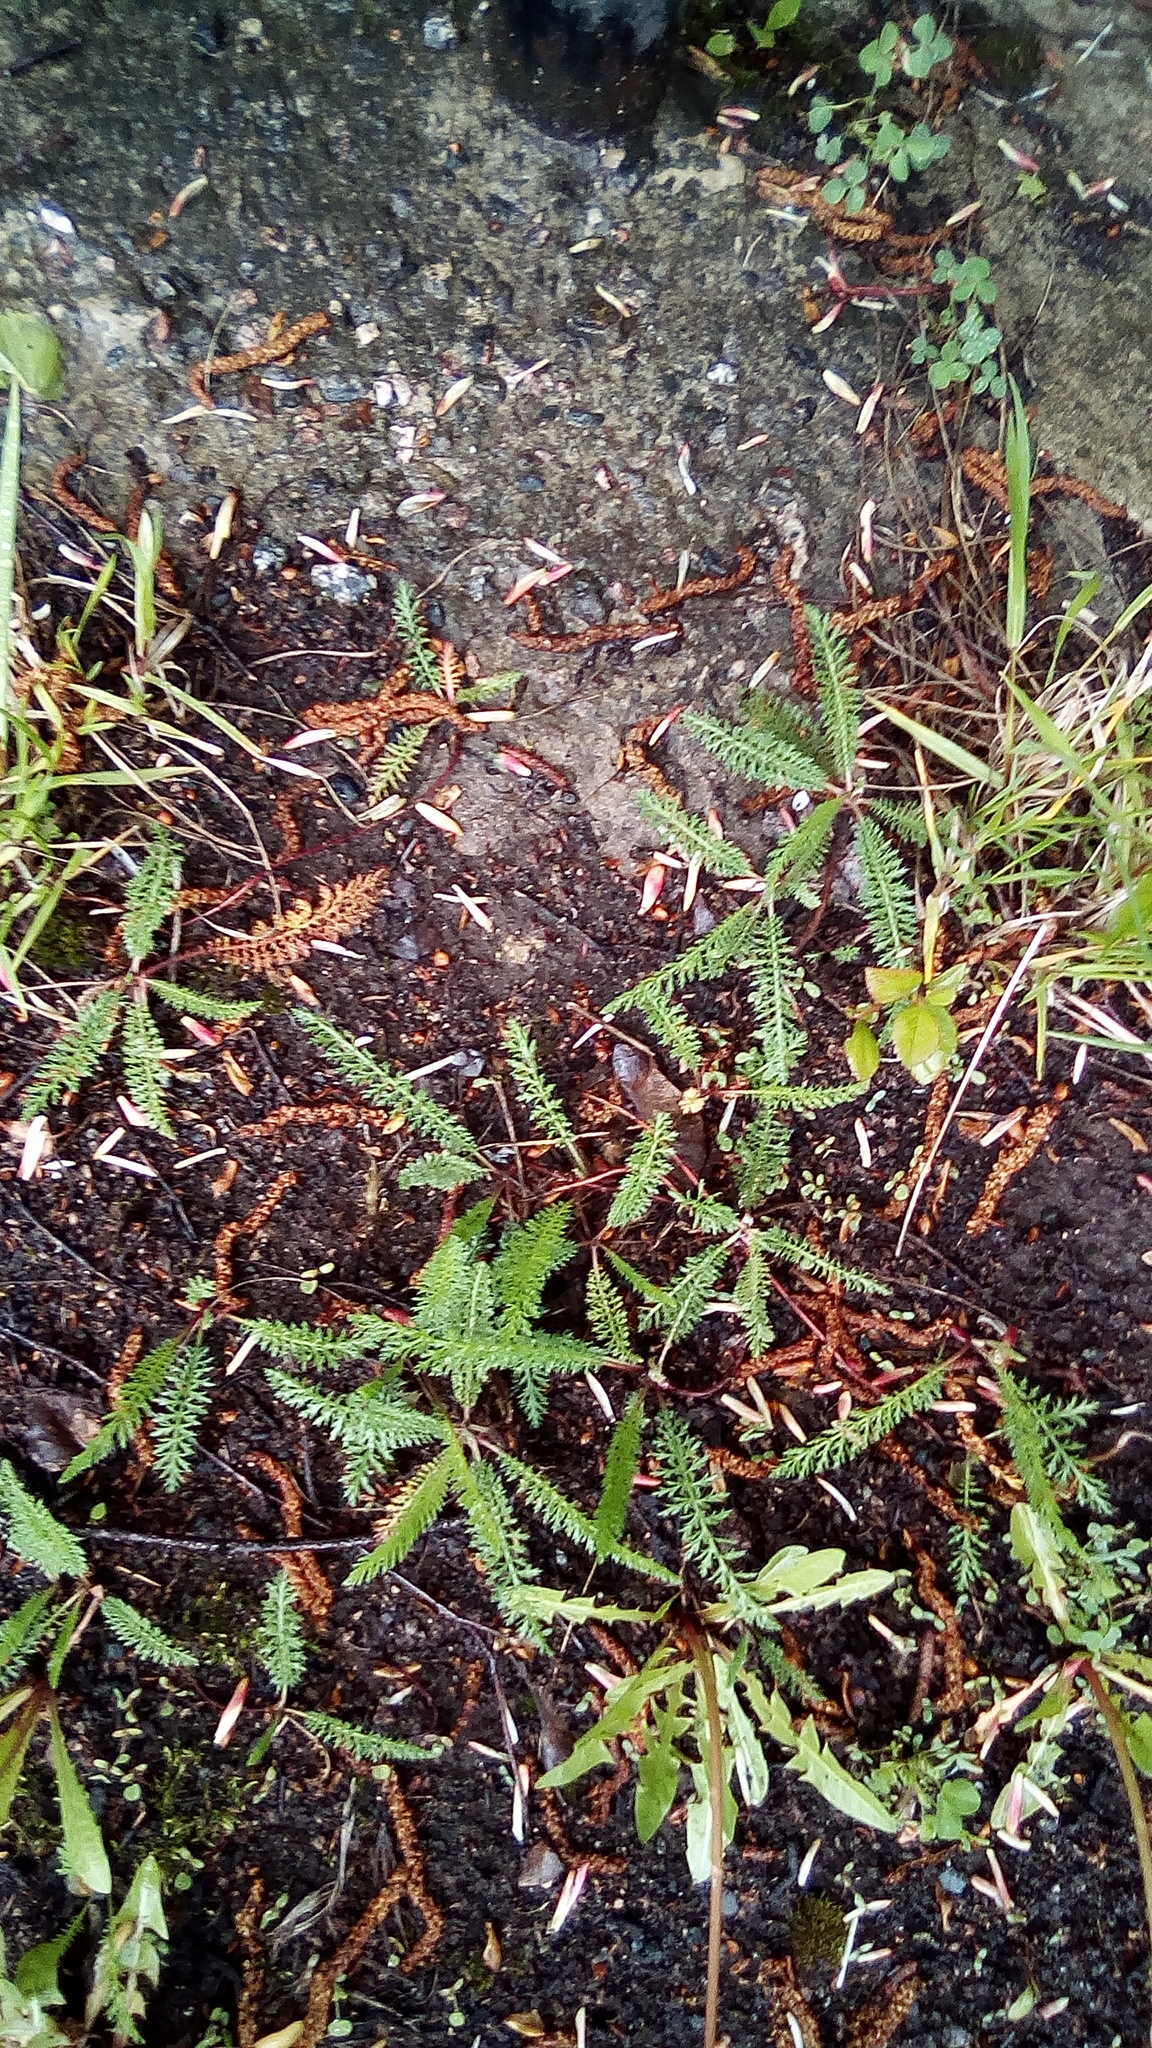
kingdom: Plantae
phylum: Tracheophyta
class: Magnoliopsida
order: Asterales
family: Asteraceae
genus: Achillea
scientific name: Achillea millefolium
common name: Yarrow
